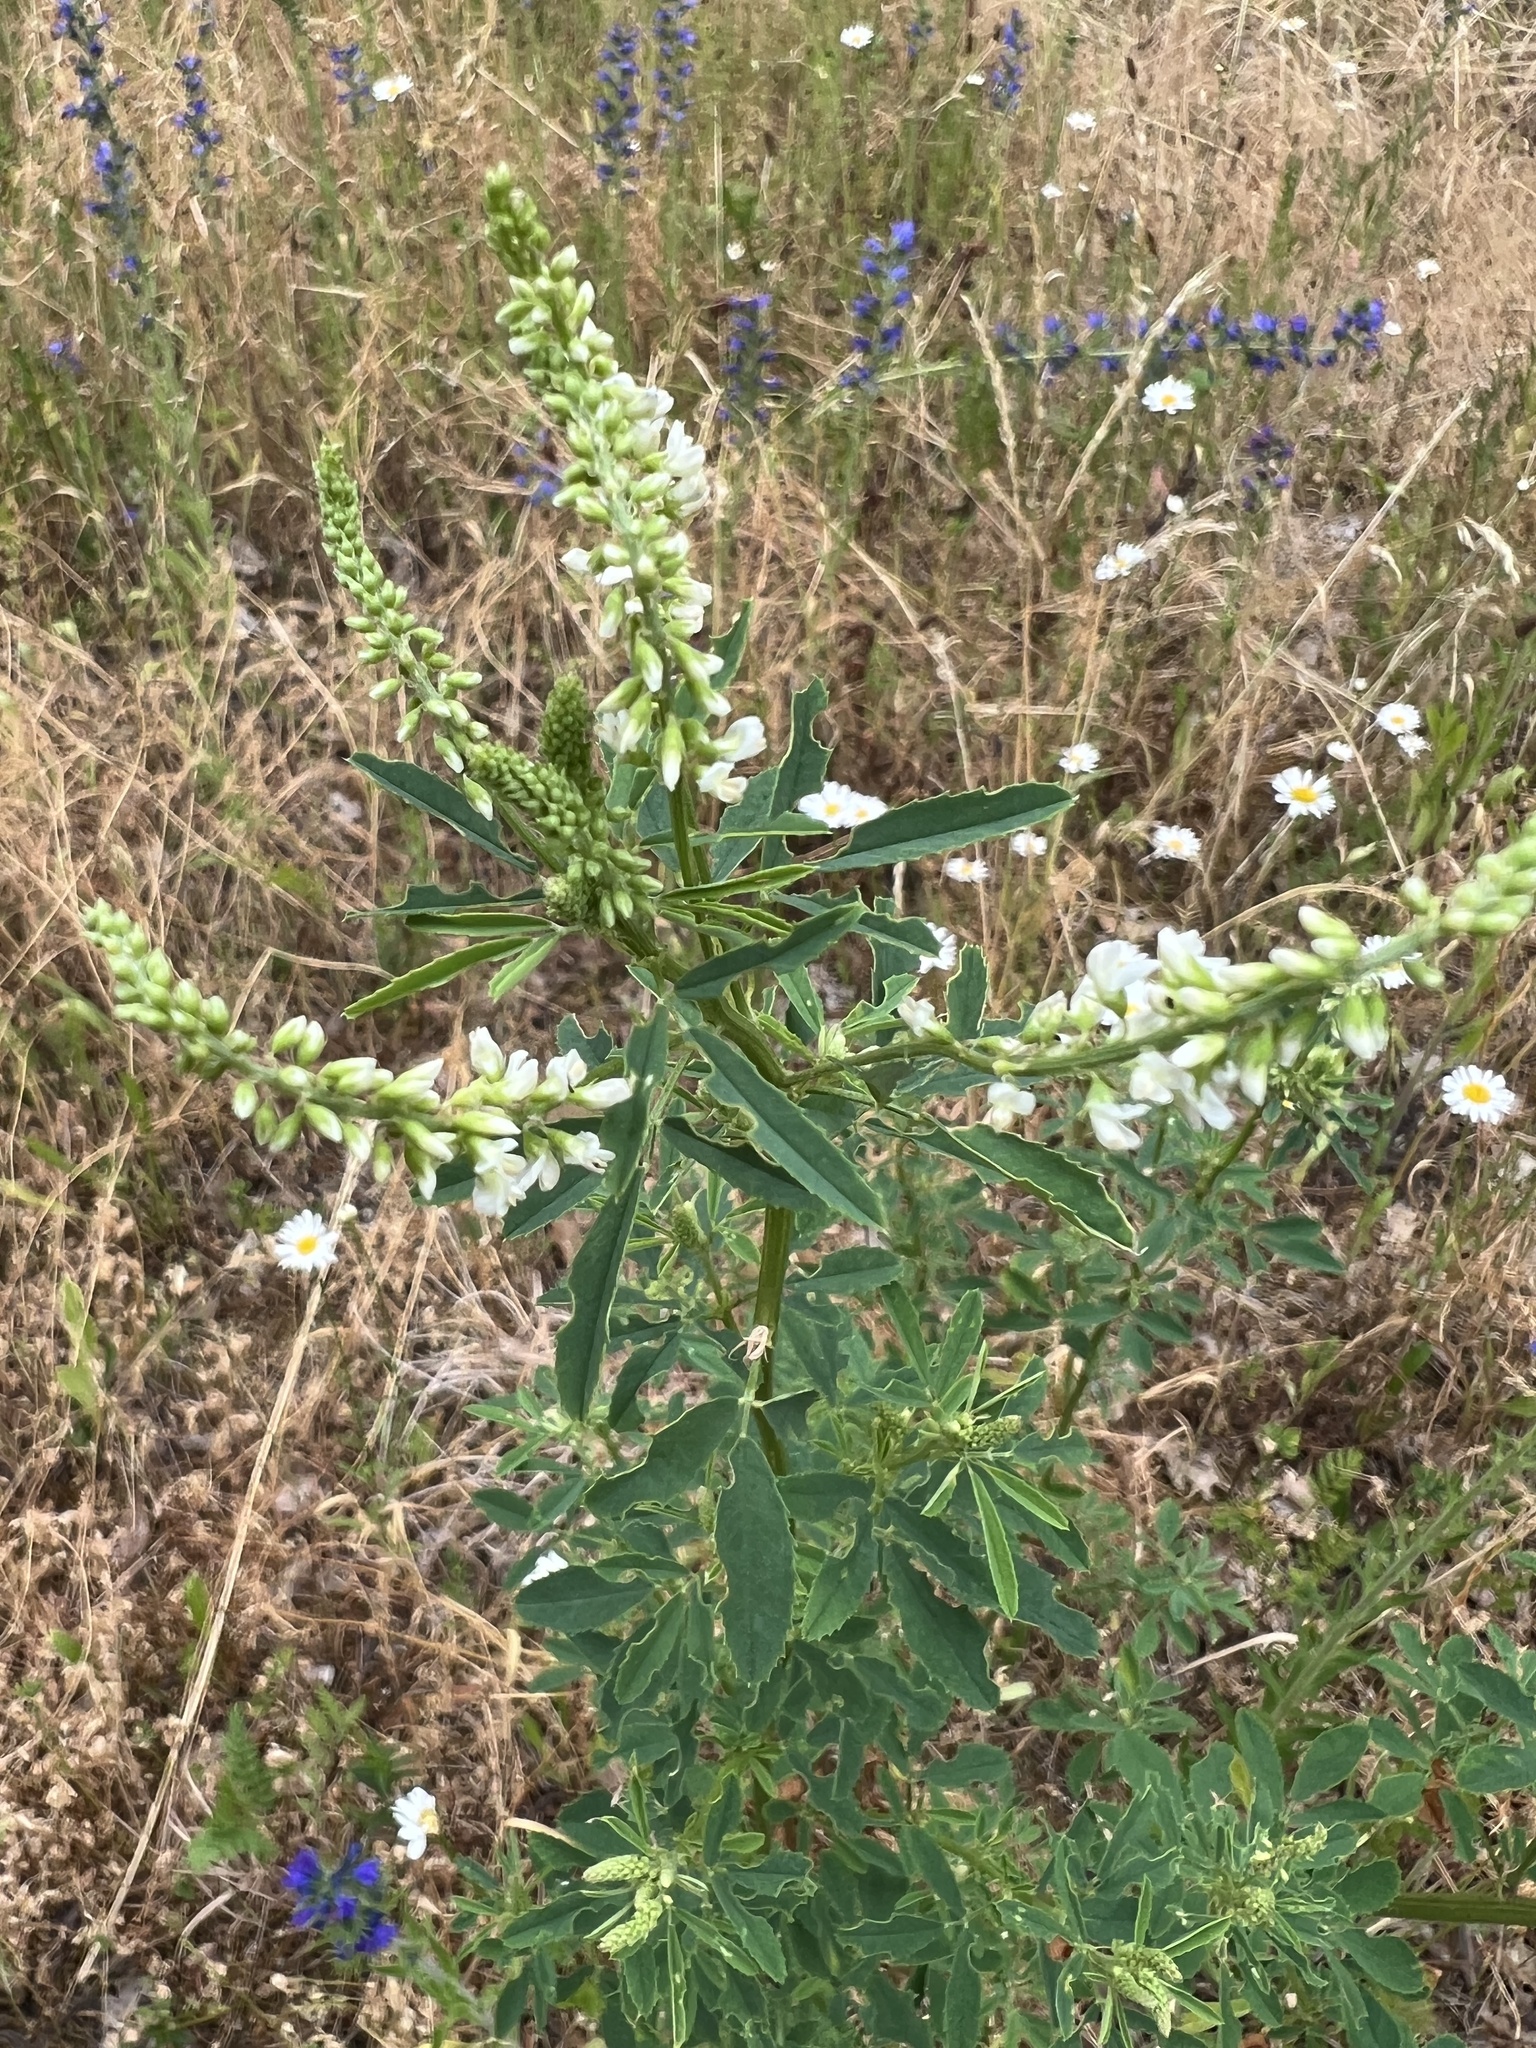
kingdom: Plantae
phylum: Tracheophyta
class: Magnoliopsida
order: Fabales
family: Fabaceae
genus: Melilotus
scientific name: Melilotus albus
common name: White melilot
